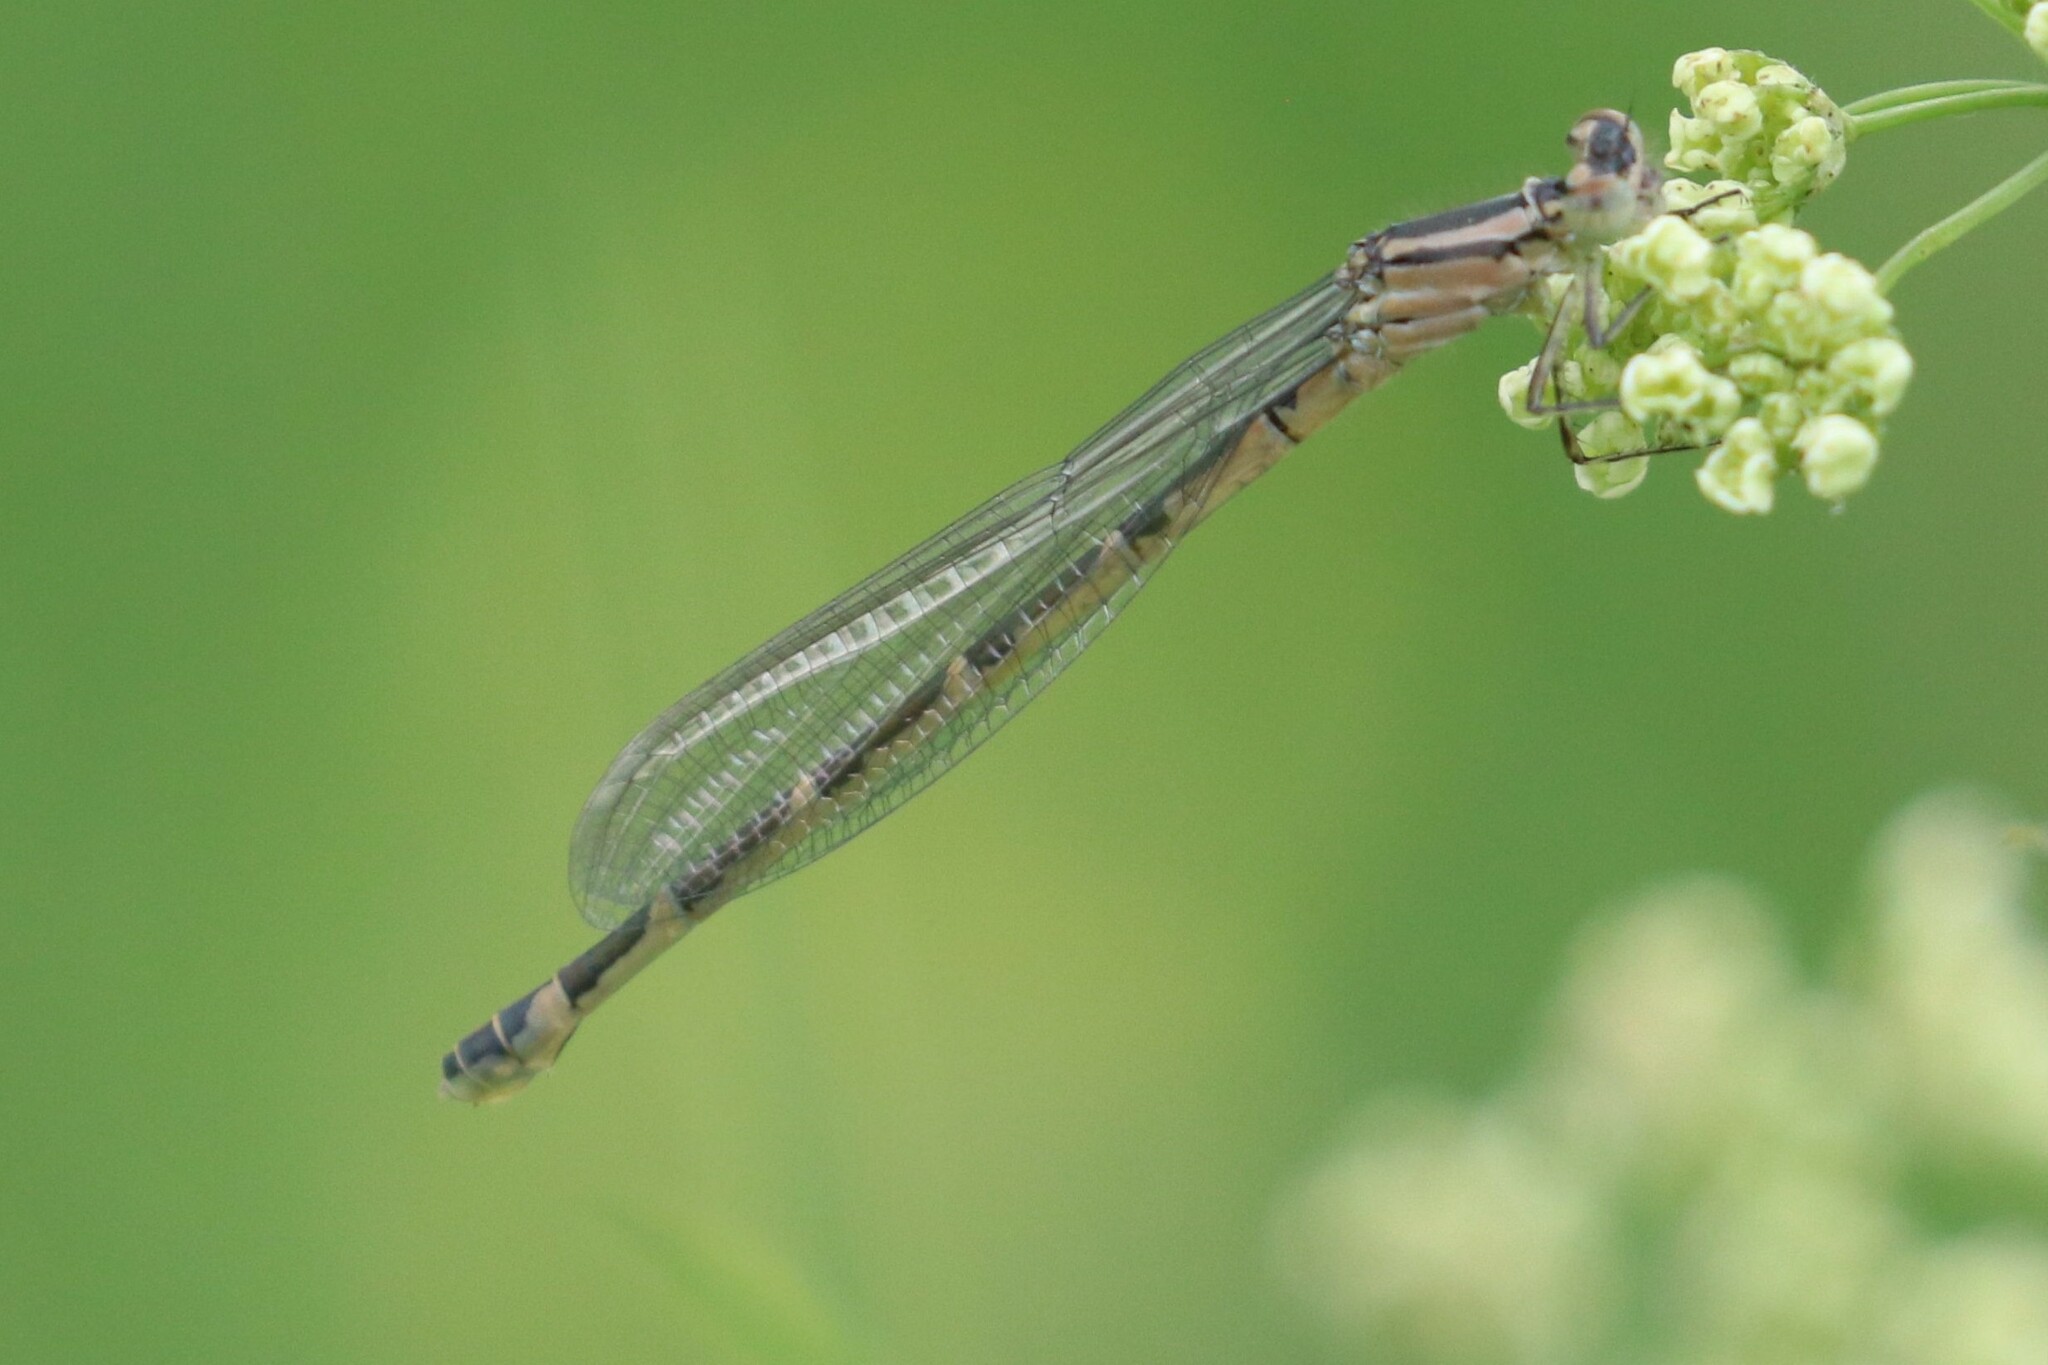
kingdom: Animalia
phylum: Arthropoda
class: Insecta
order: Odonata
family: Coenagrionidae
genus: Enallagma
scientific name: Enallagma cyathigerum
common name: Common blue damselfly
